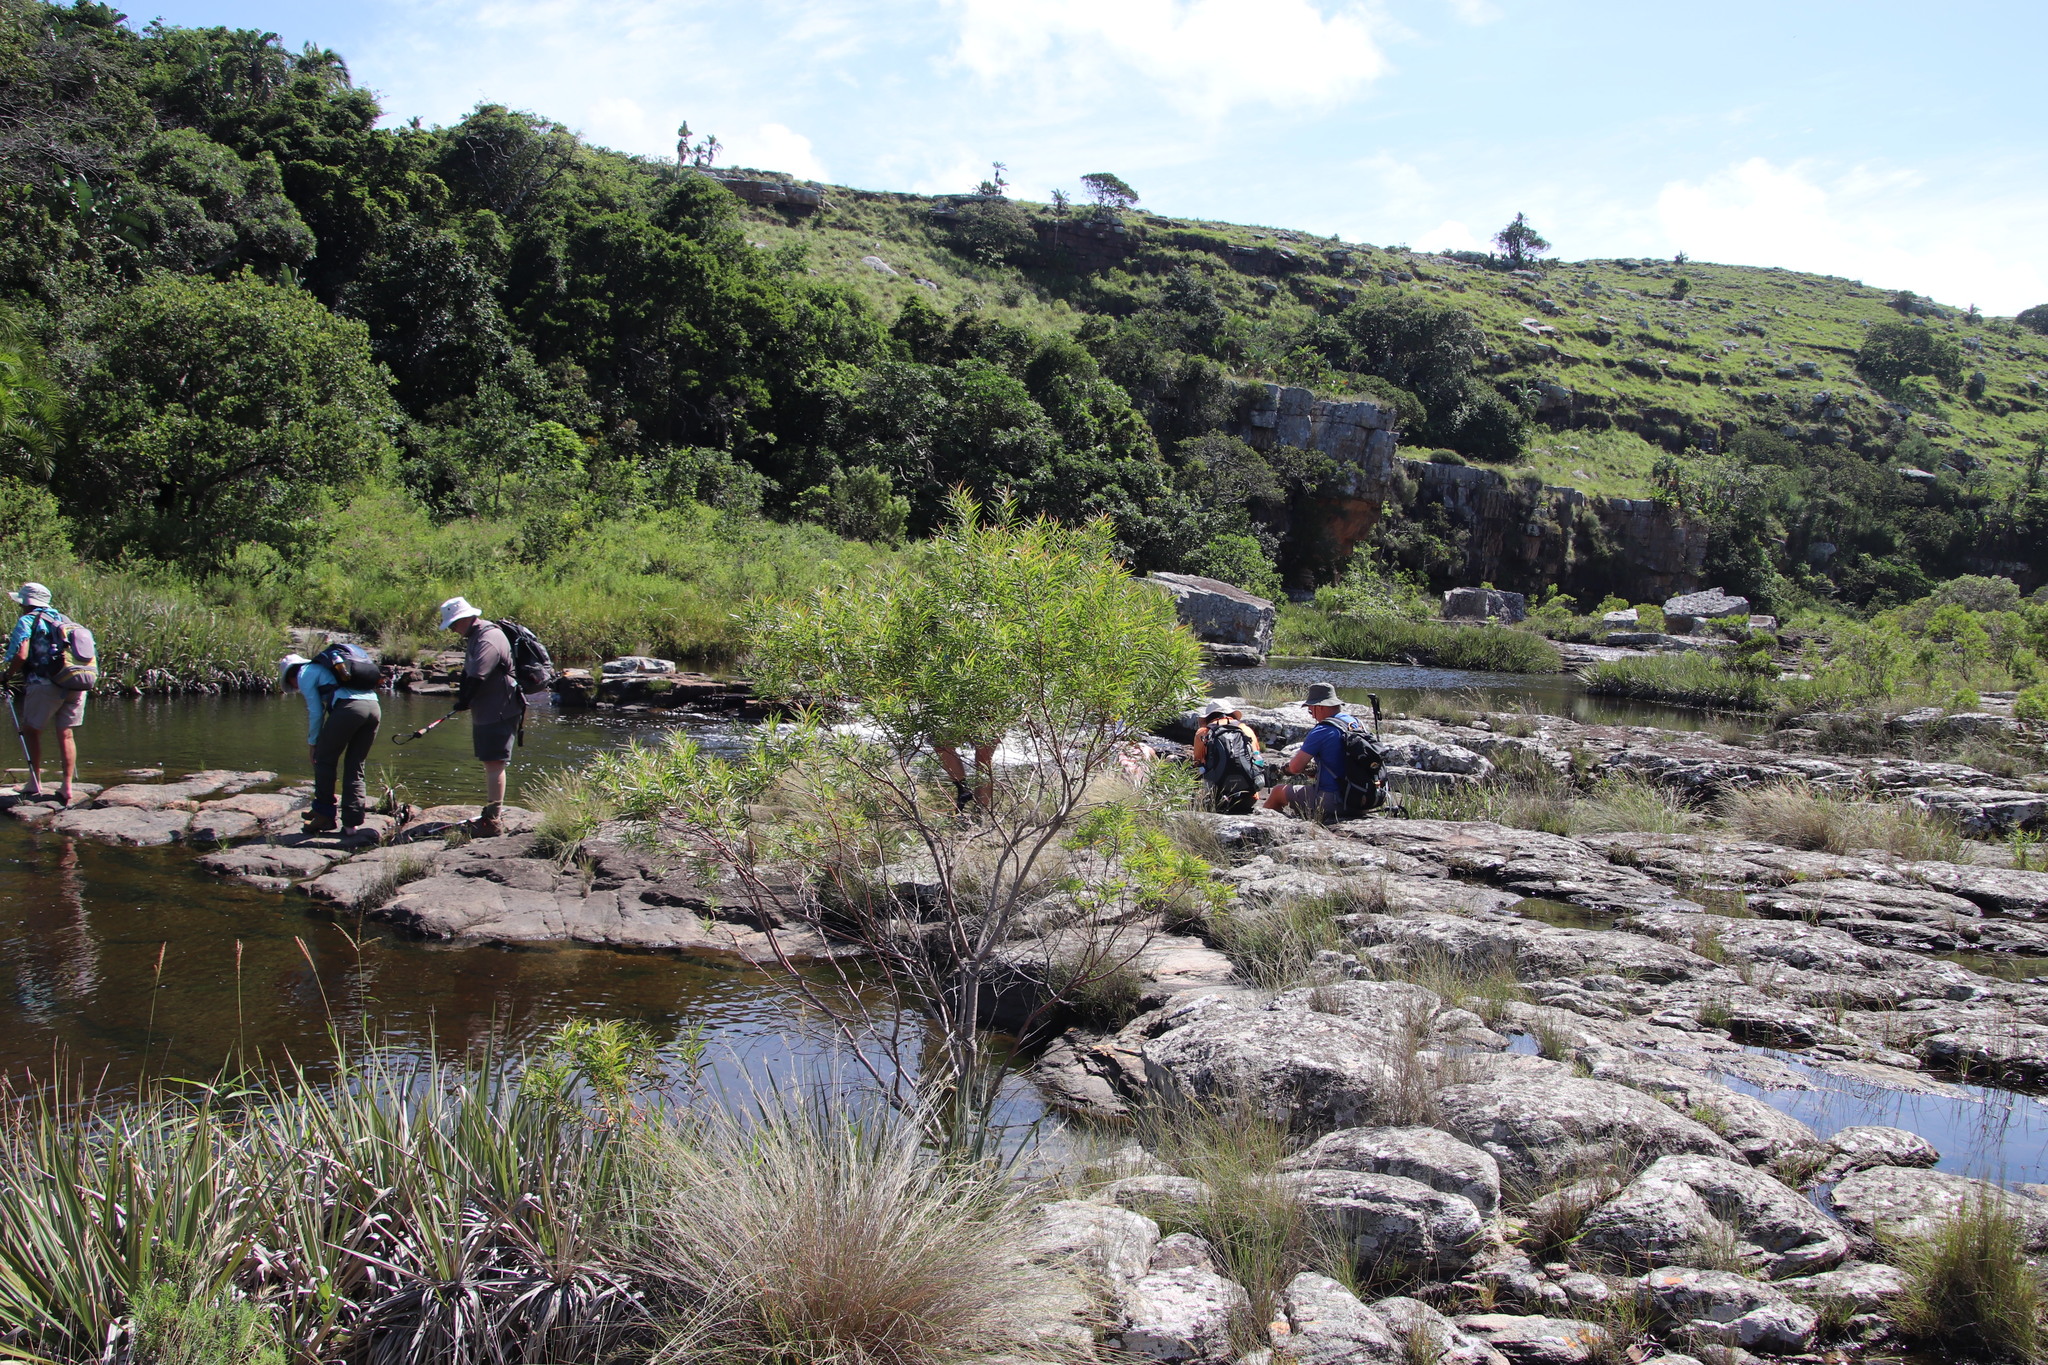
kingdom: Plantae
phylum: Tracheophyta
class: Magnoliopsida
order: Proteales
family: Proteaceae
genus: Leucadendron
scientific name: Leucadendron pondoense
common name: Pondoland conebush
